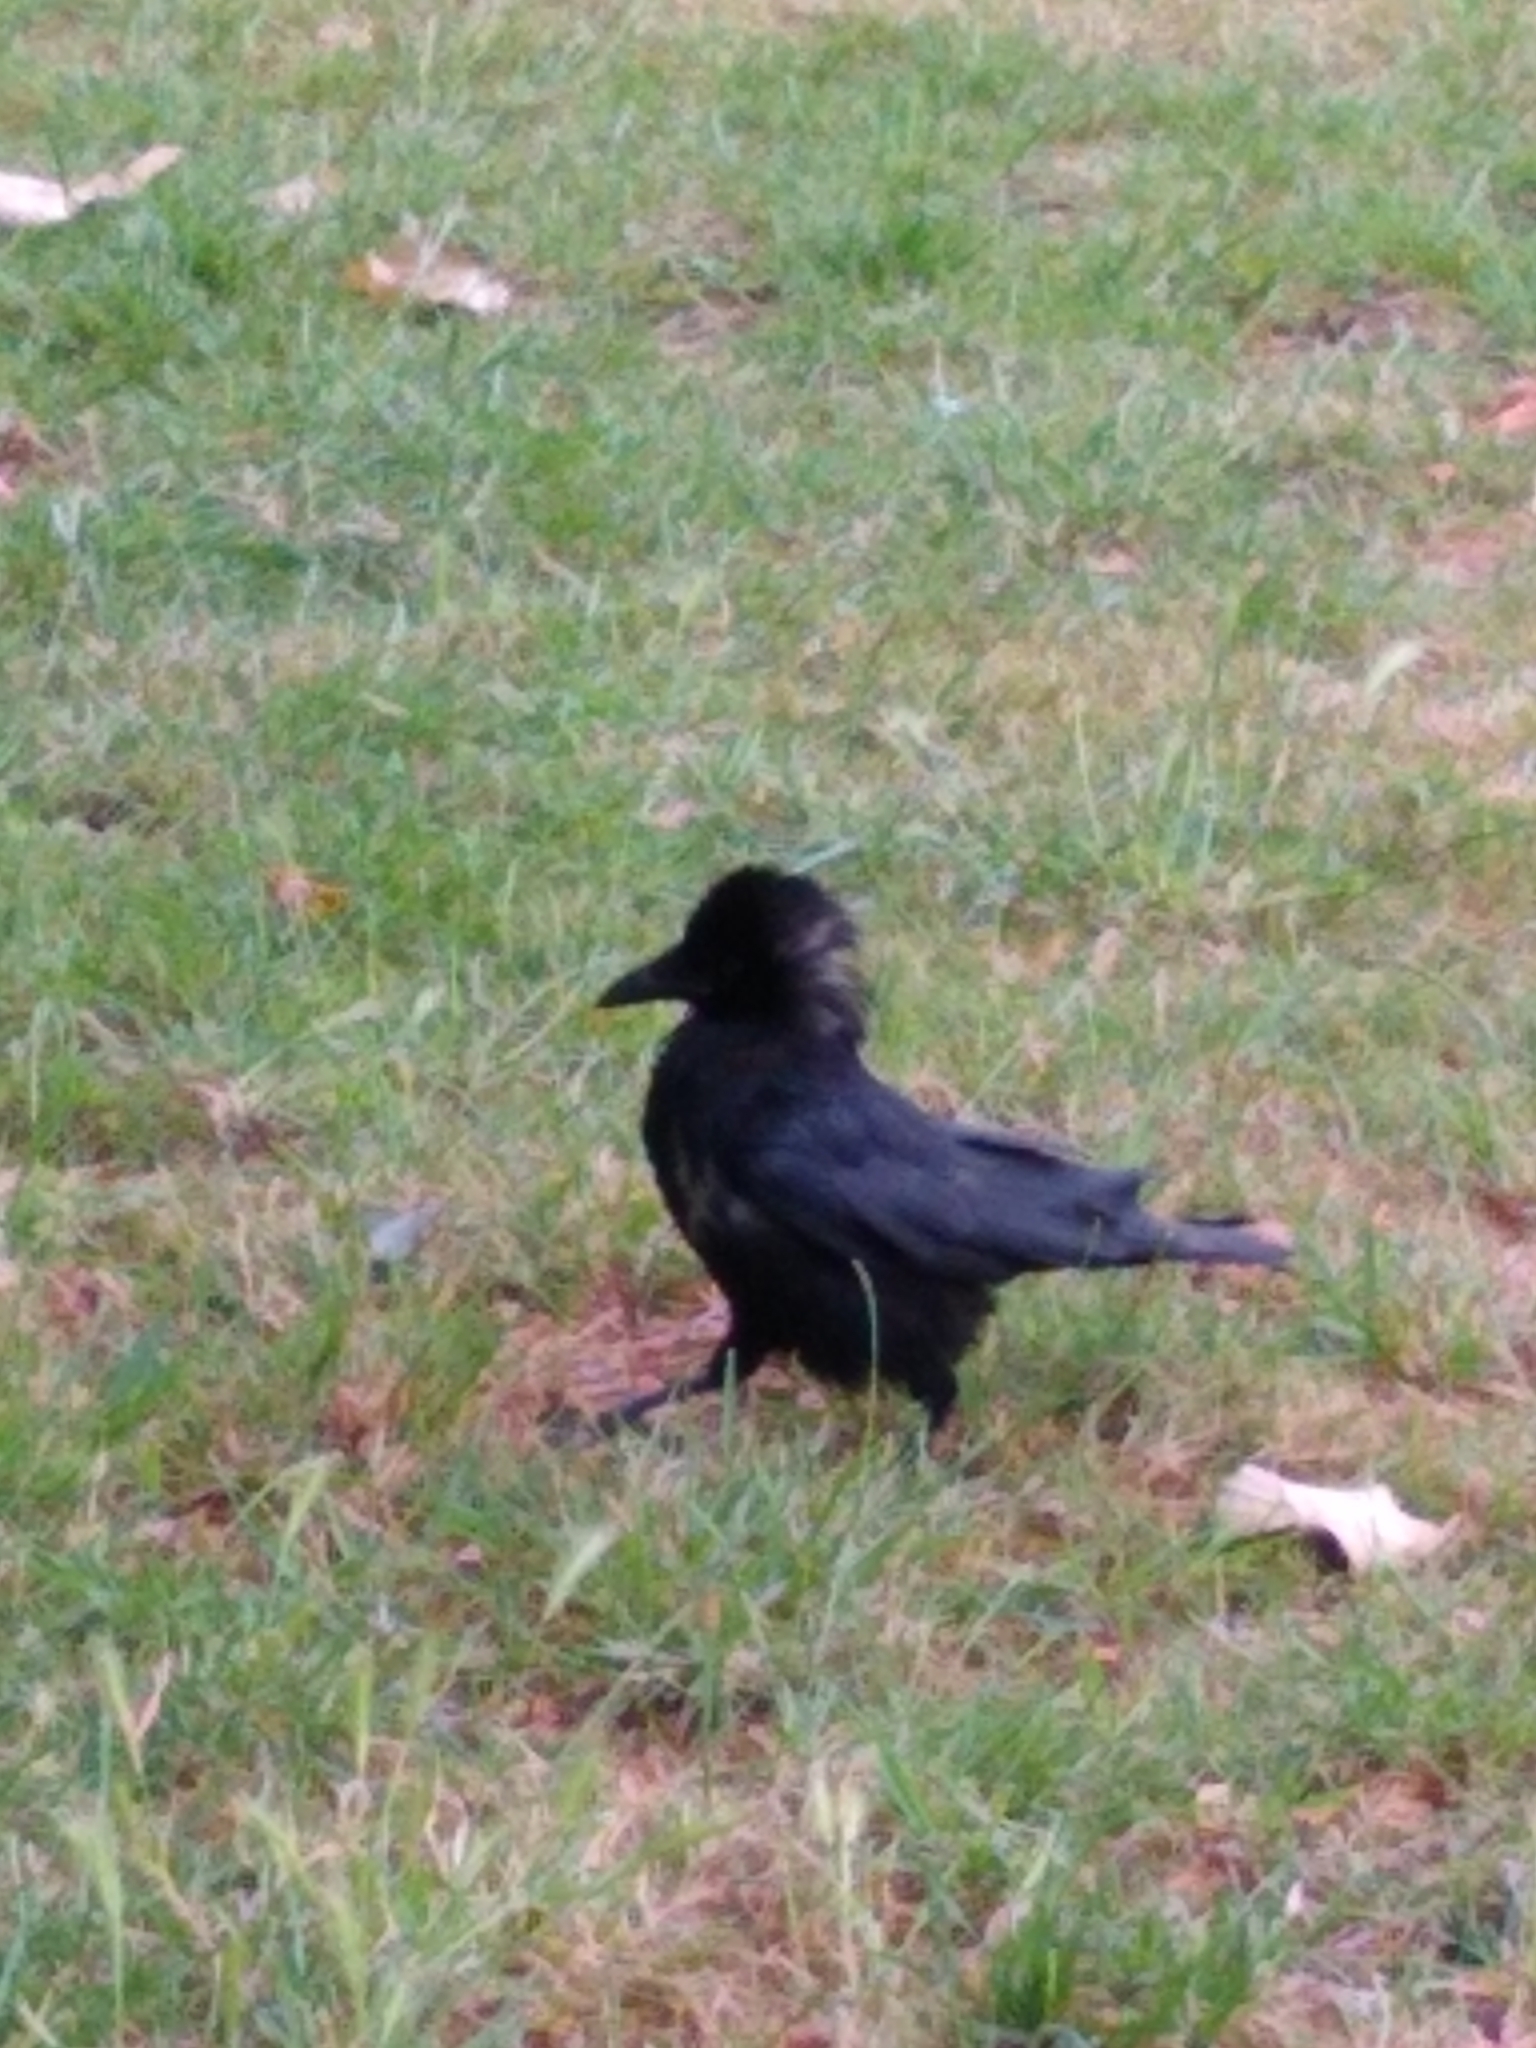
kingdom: Animalia
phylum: Chordata
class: Aves
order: Passeriformes
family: Corvidae
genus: Corvus
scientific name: Corvus corone
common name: Carrion crow
